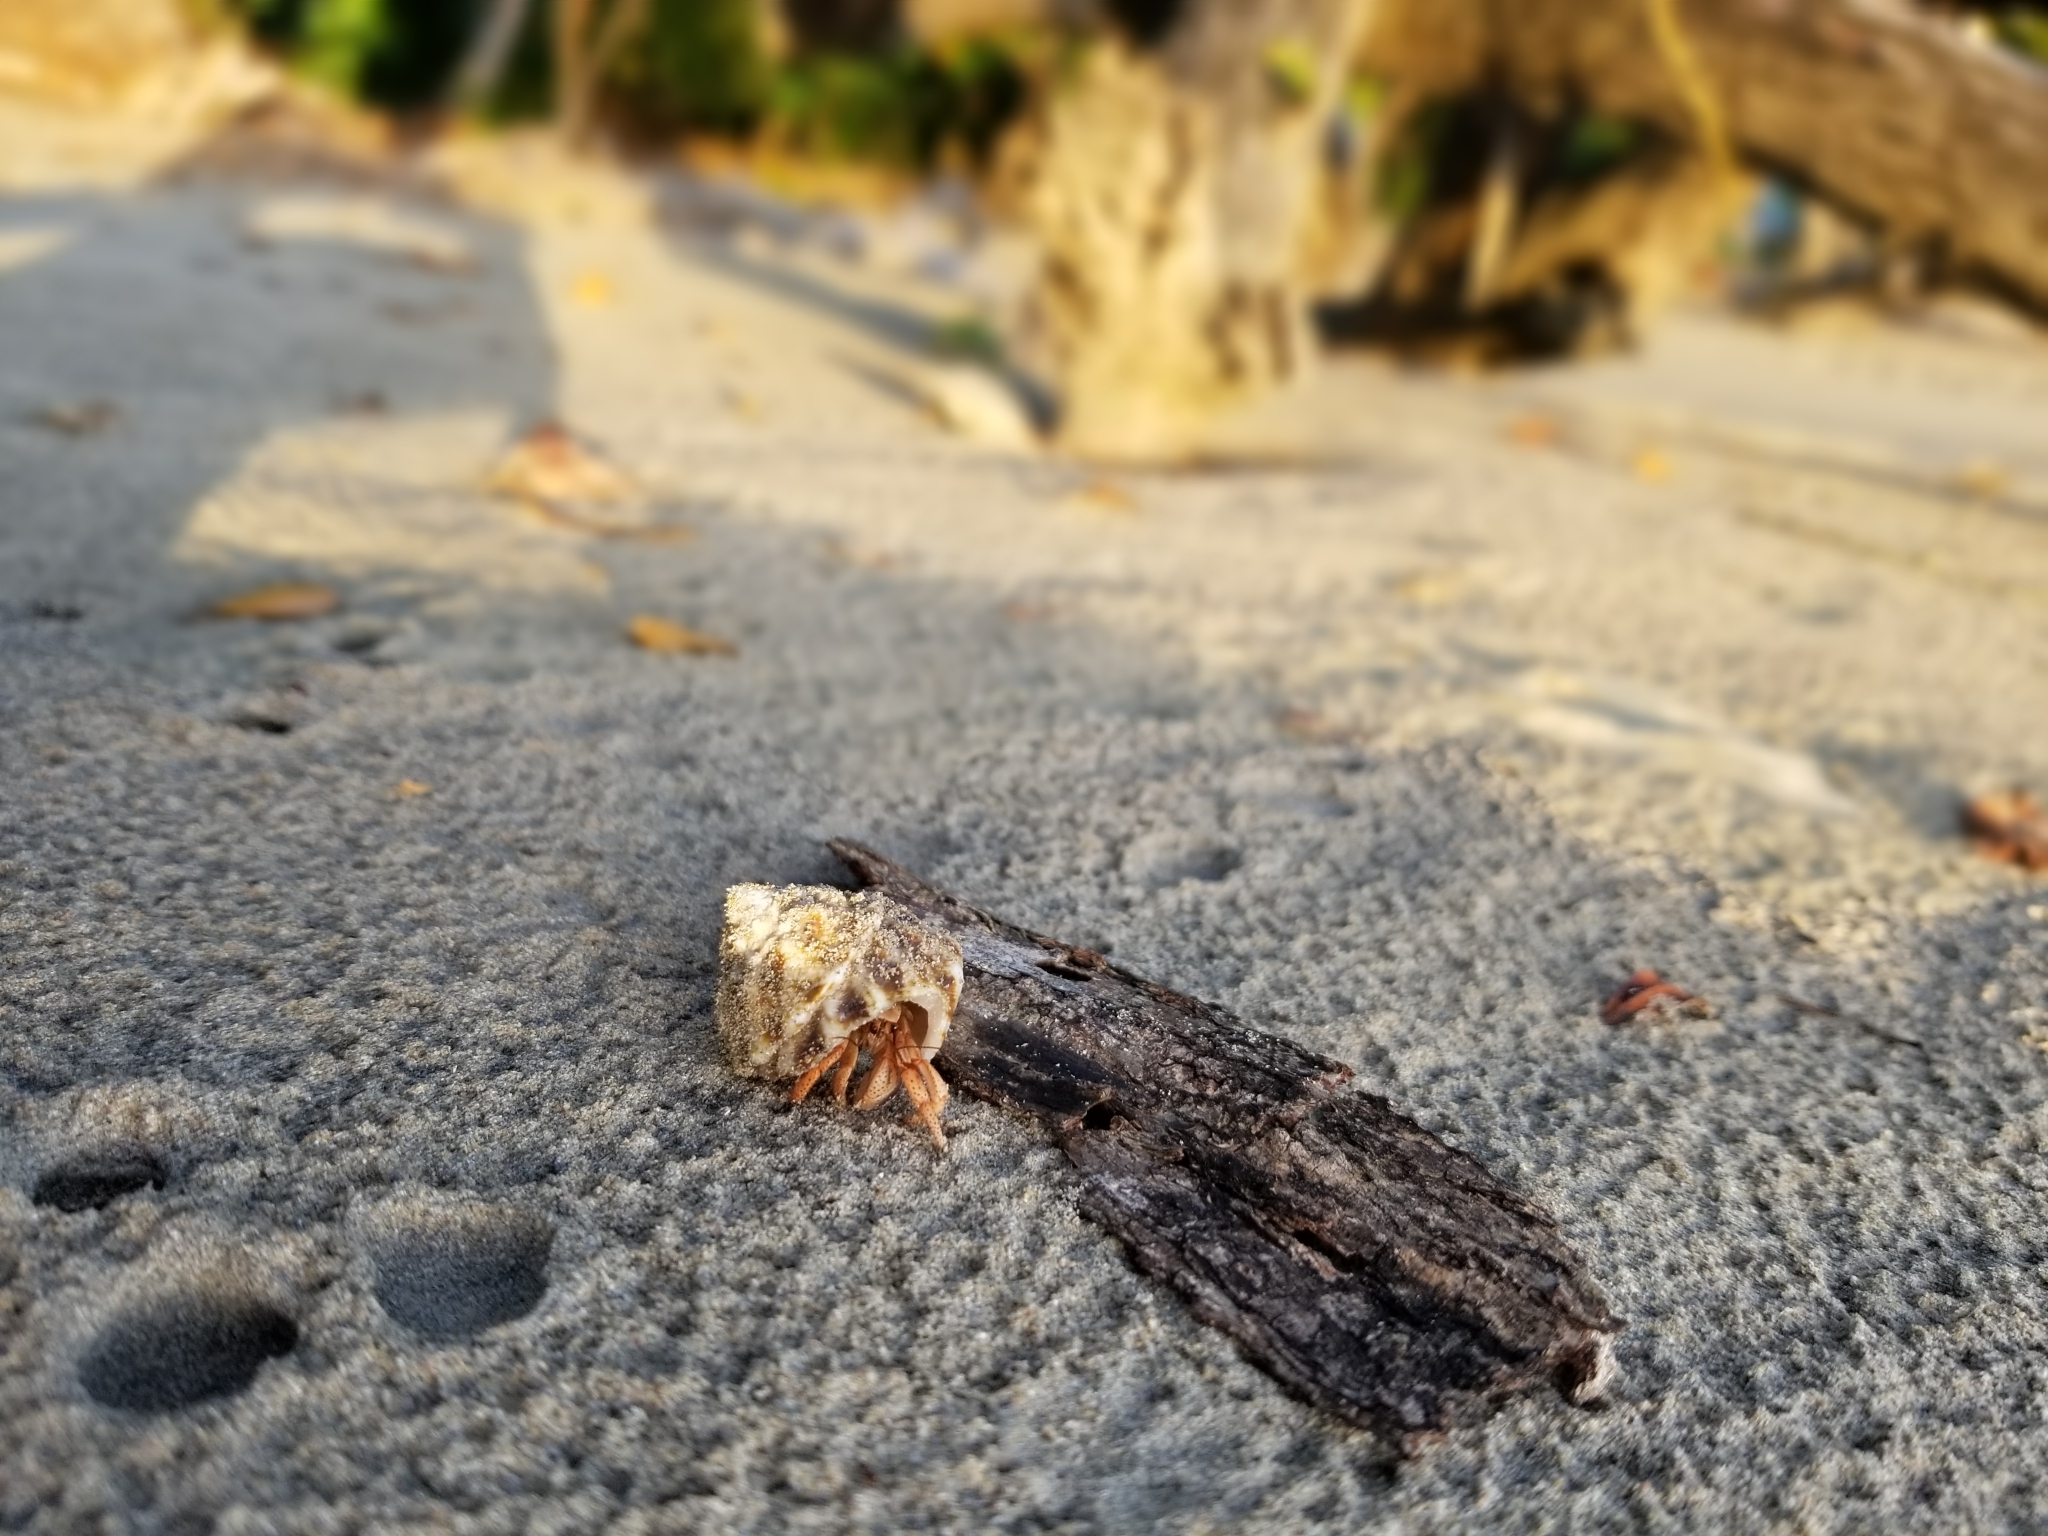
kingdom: Animalia
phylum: Arthropoda
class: Malacostraca
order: Decapoda
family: Coenobitidae
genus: Coenobita
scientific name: Coenobita clypeatus
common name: Caribbean hermit crab
